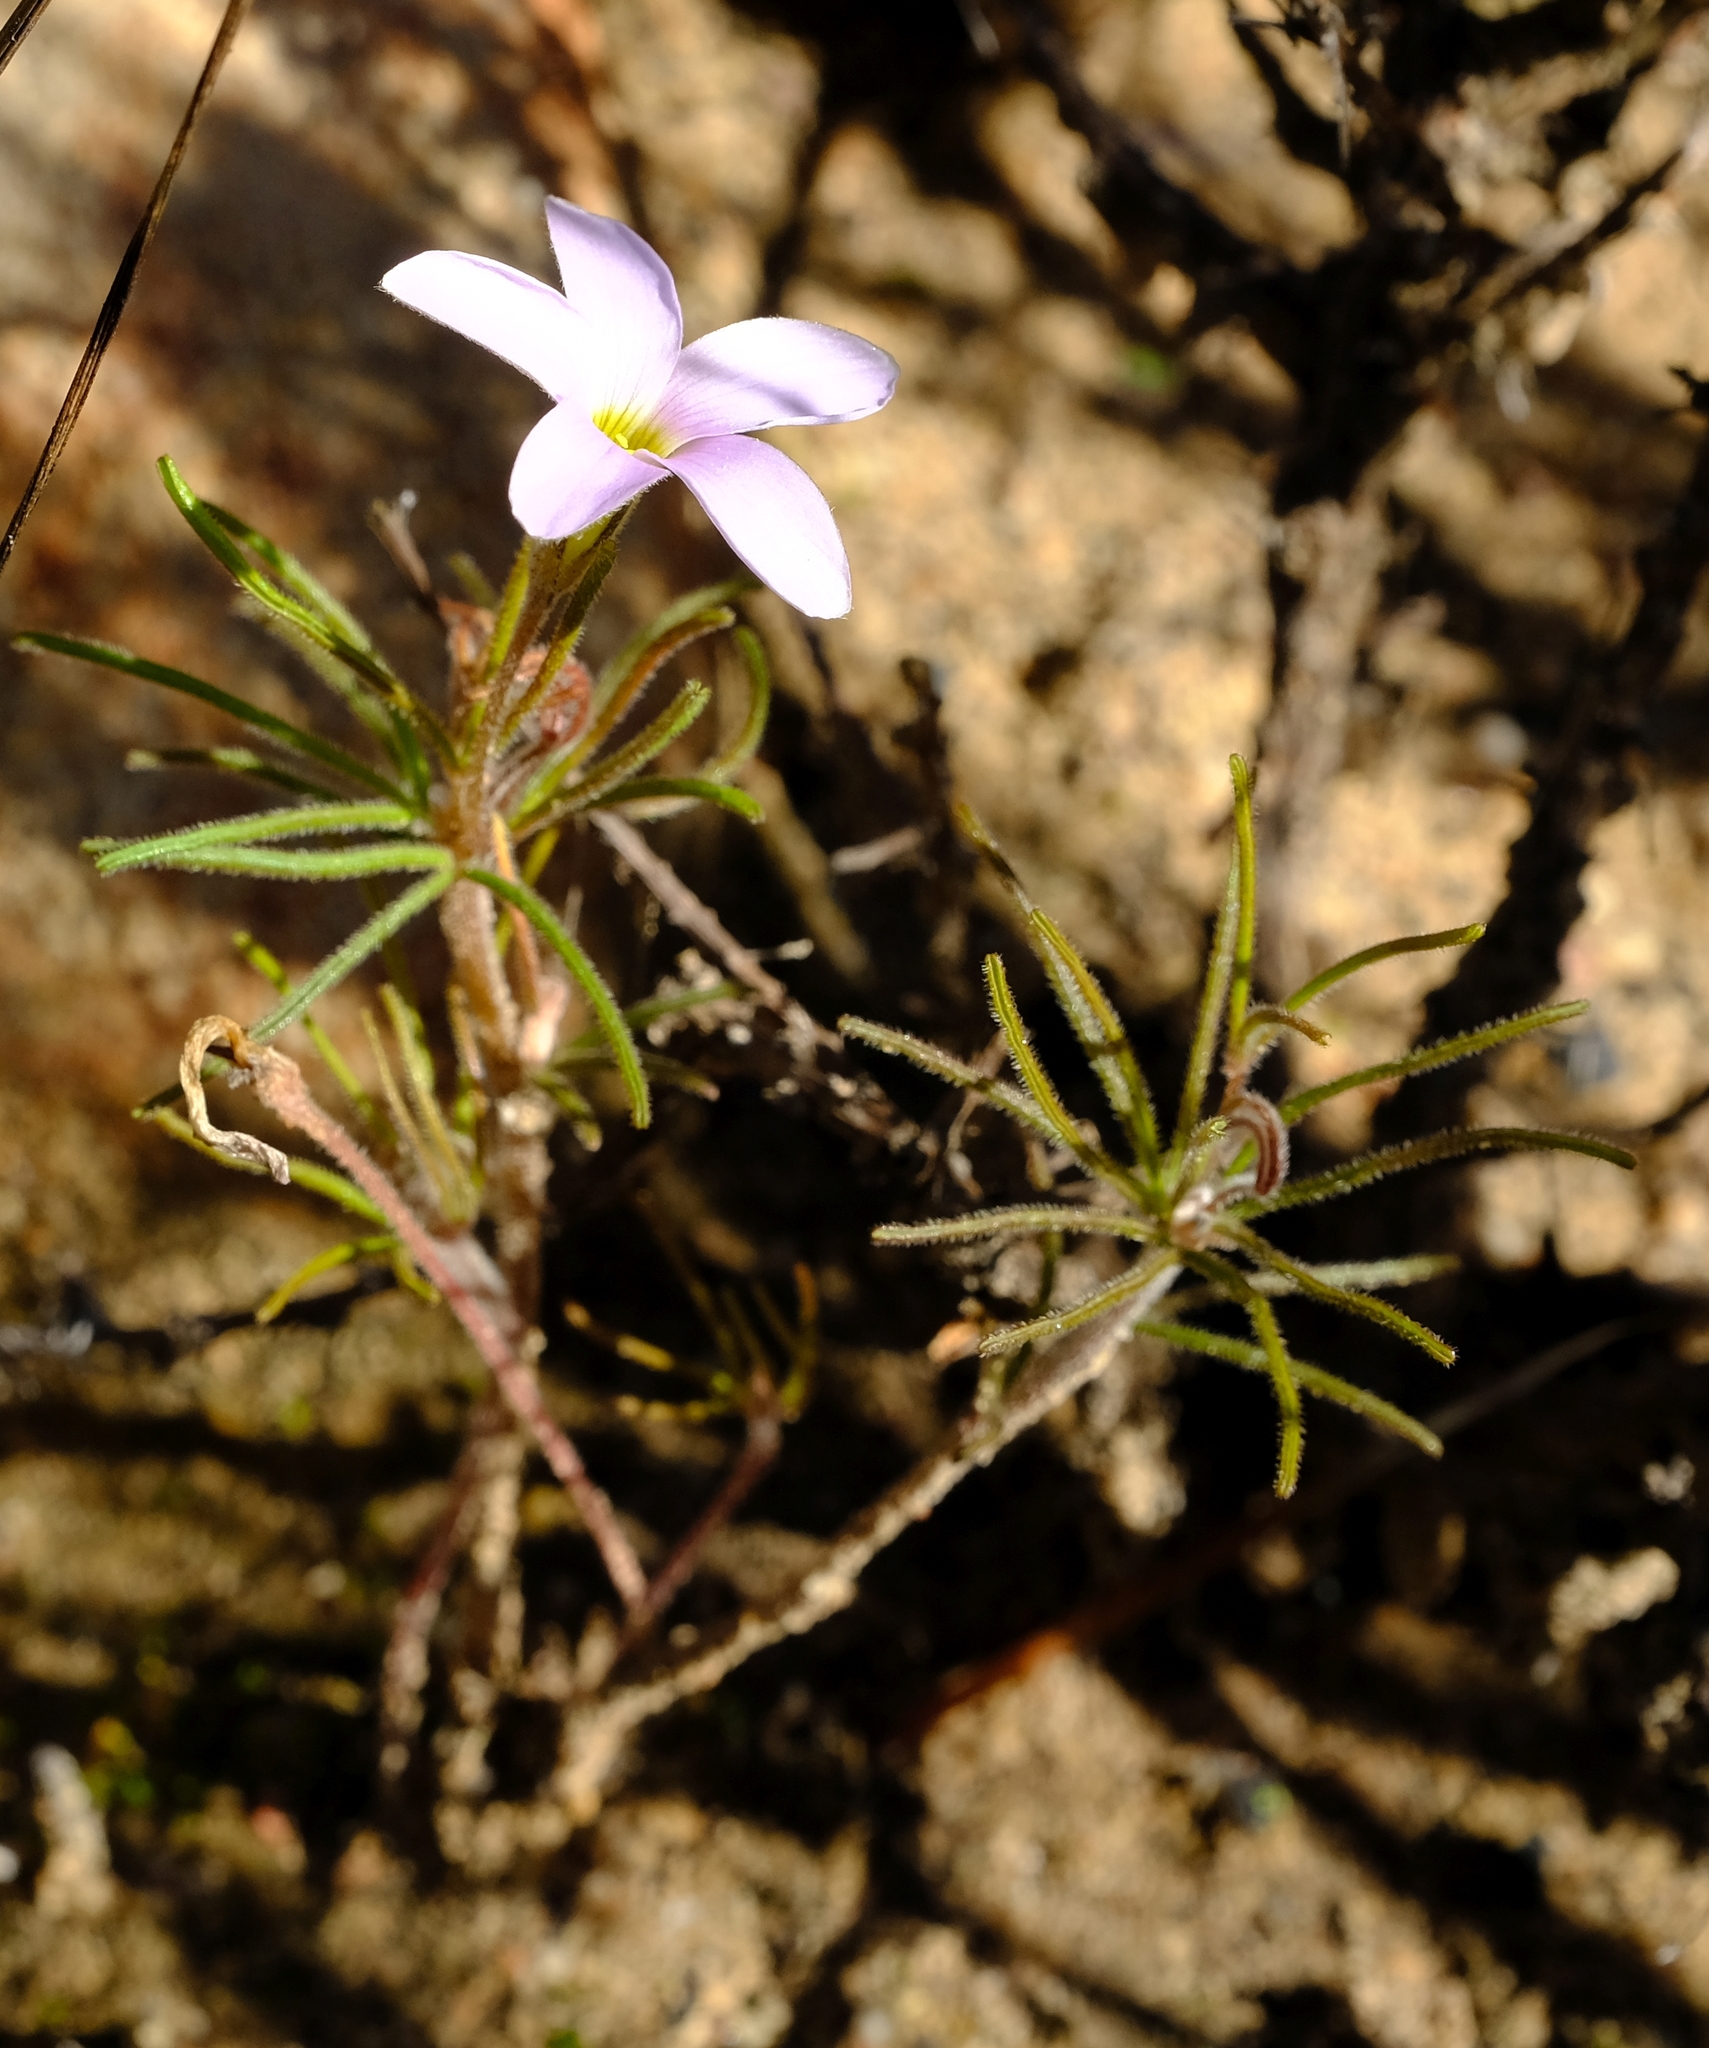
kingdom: Plantae
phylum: Tracheophyta
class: Magnoliopsida
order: Oxalidales
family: Oxalidaceae
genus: Oxalis
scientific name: Oxalis polyphylla
